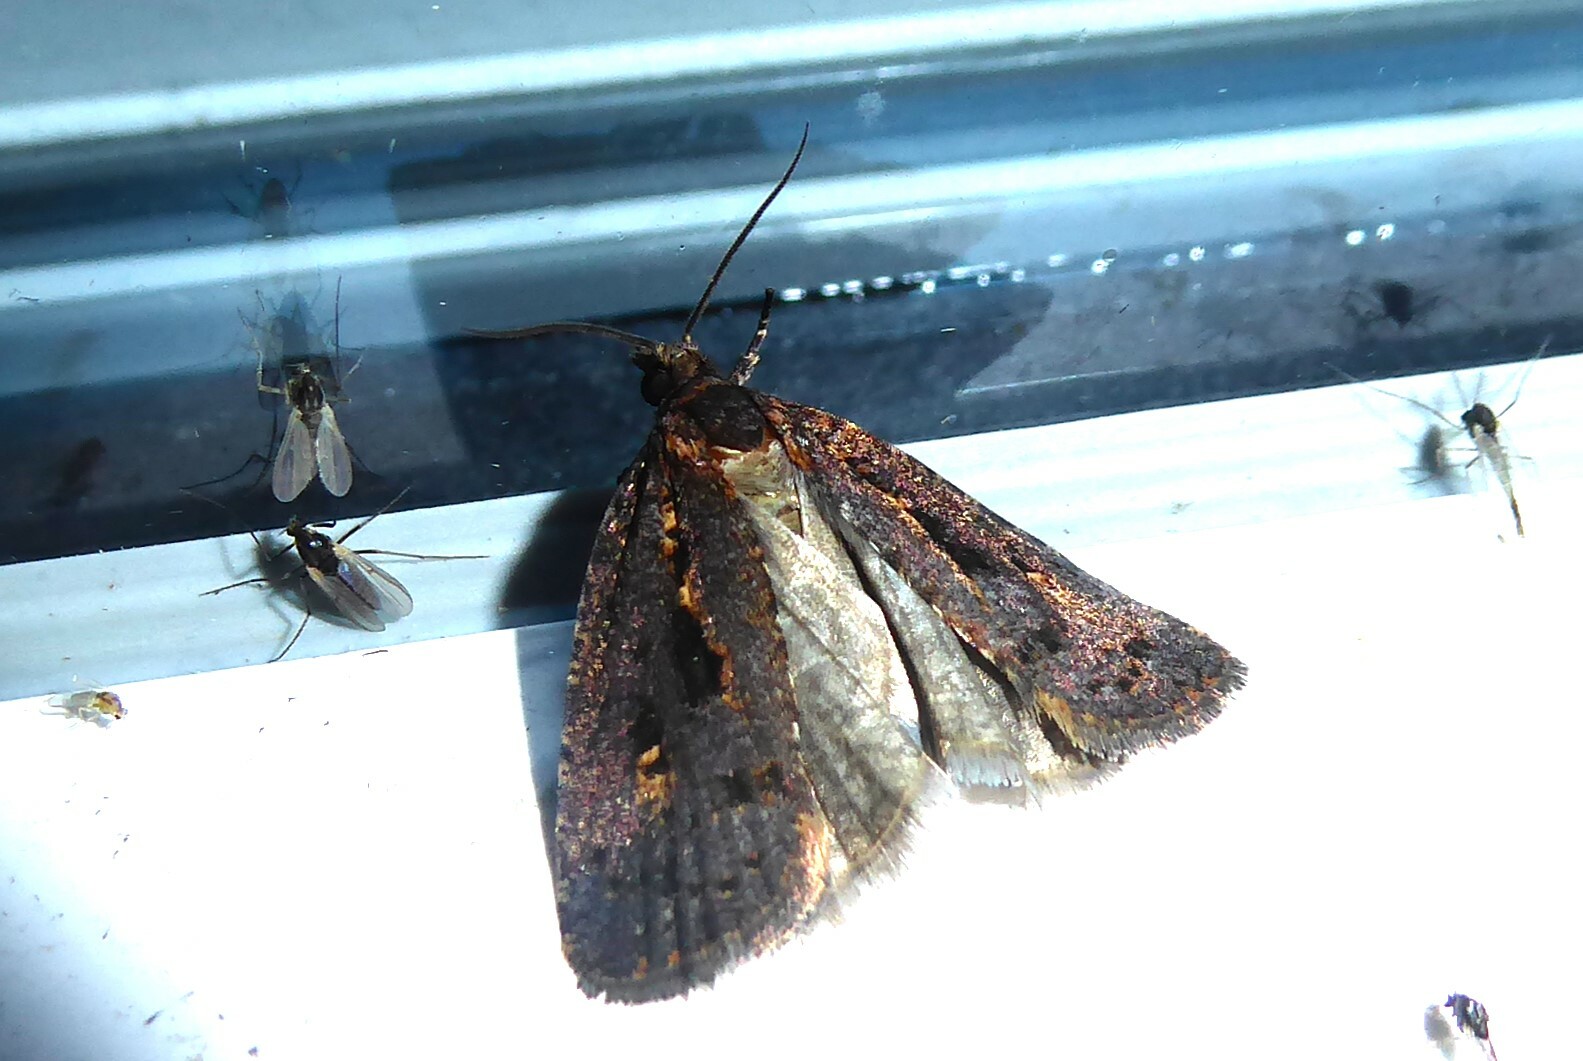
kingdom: Animalia
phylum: Arthropoda
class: Insecta
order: Lepidoptera
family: Tortricidae
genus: Cryptaspasma
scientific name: Cryptaspasma querula
